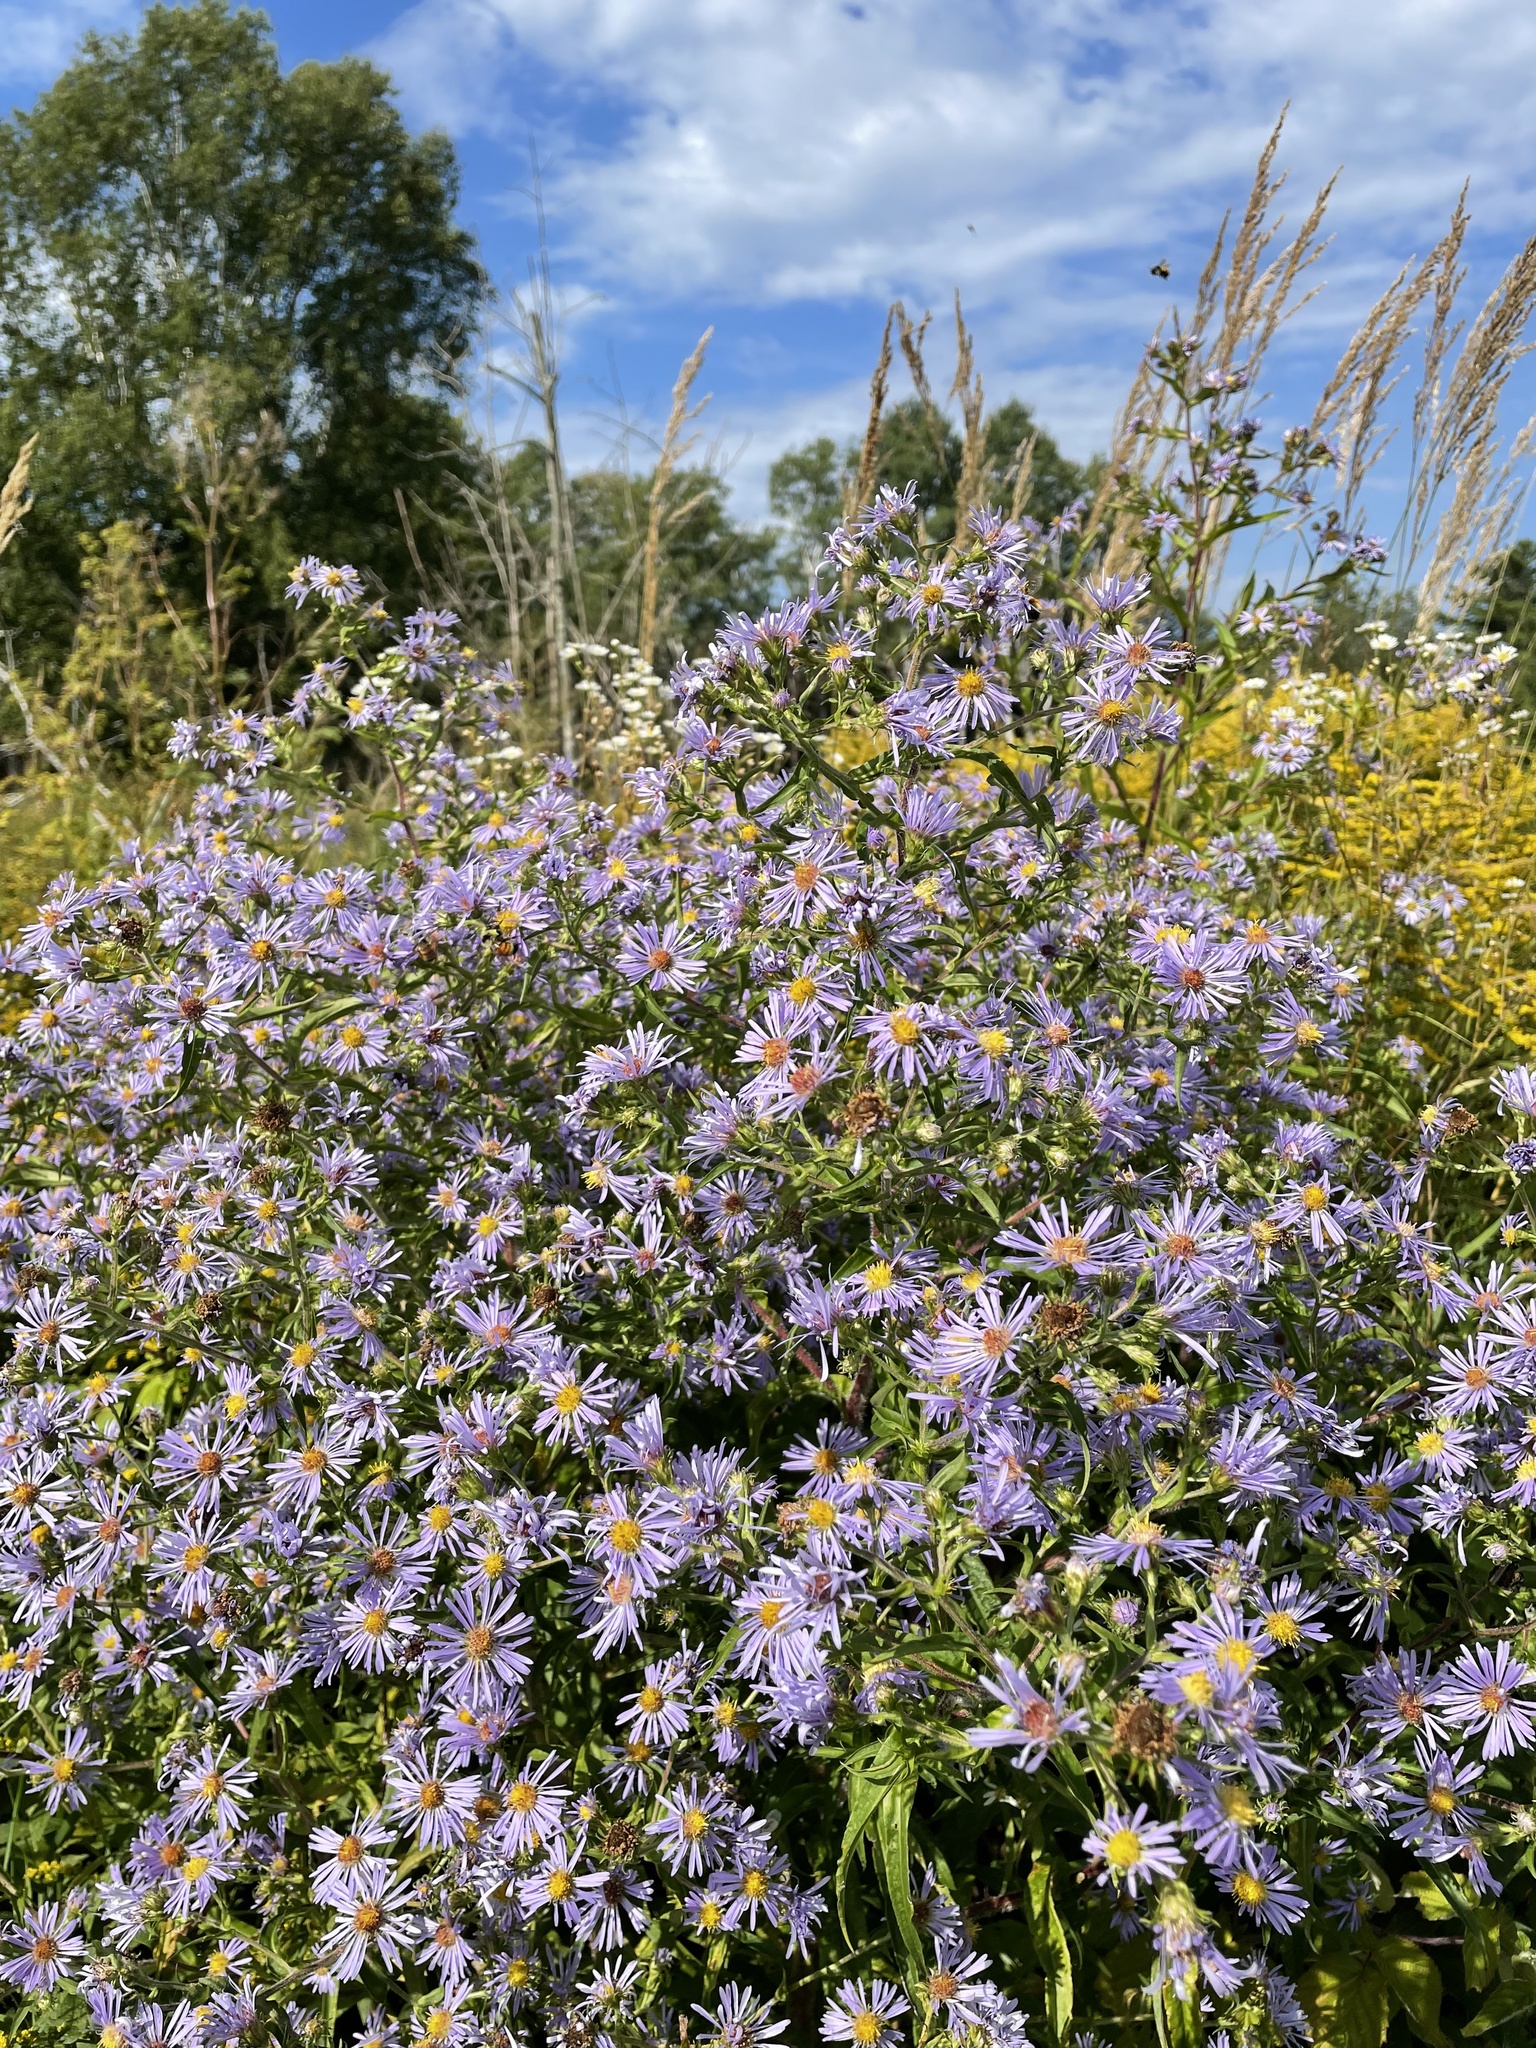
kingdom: Plantae
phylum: Tracheophyta
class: Magnoliopsida
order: Asterales
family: Asteraceae
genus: Symphyotrichum
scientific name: Symphyotrichum puniceum
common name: Bog aster
